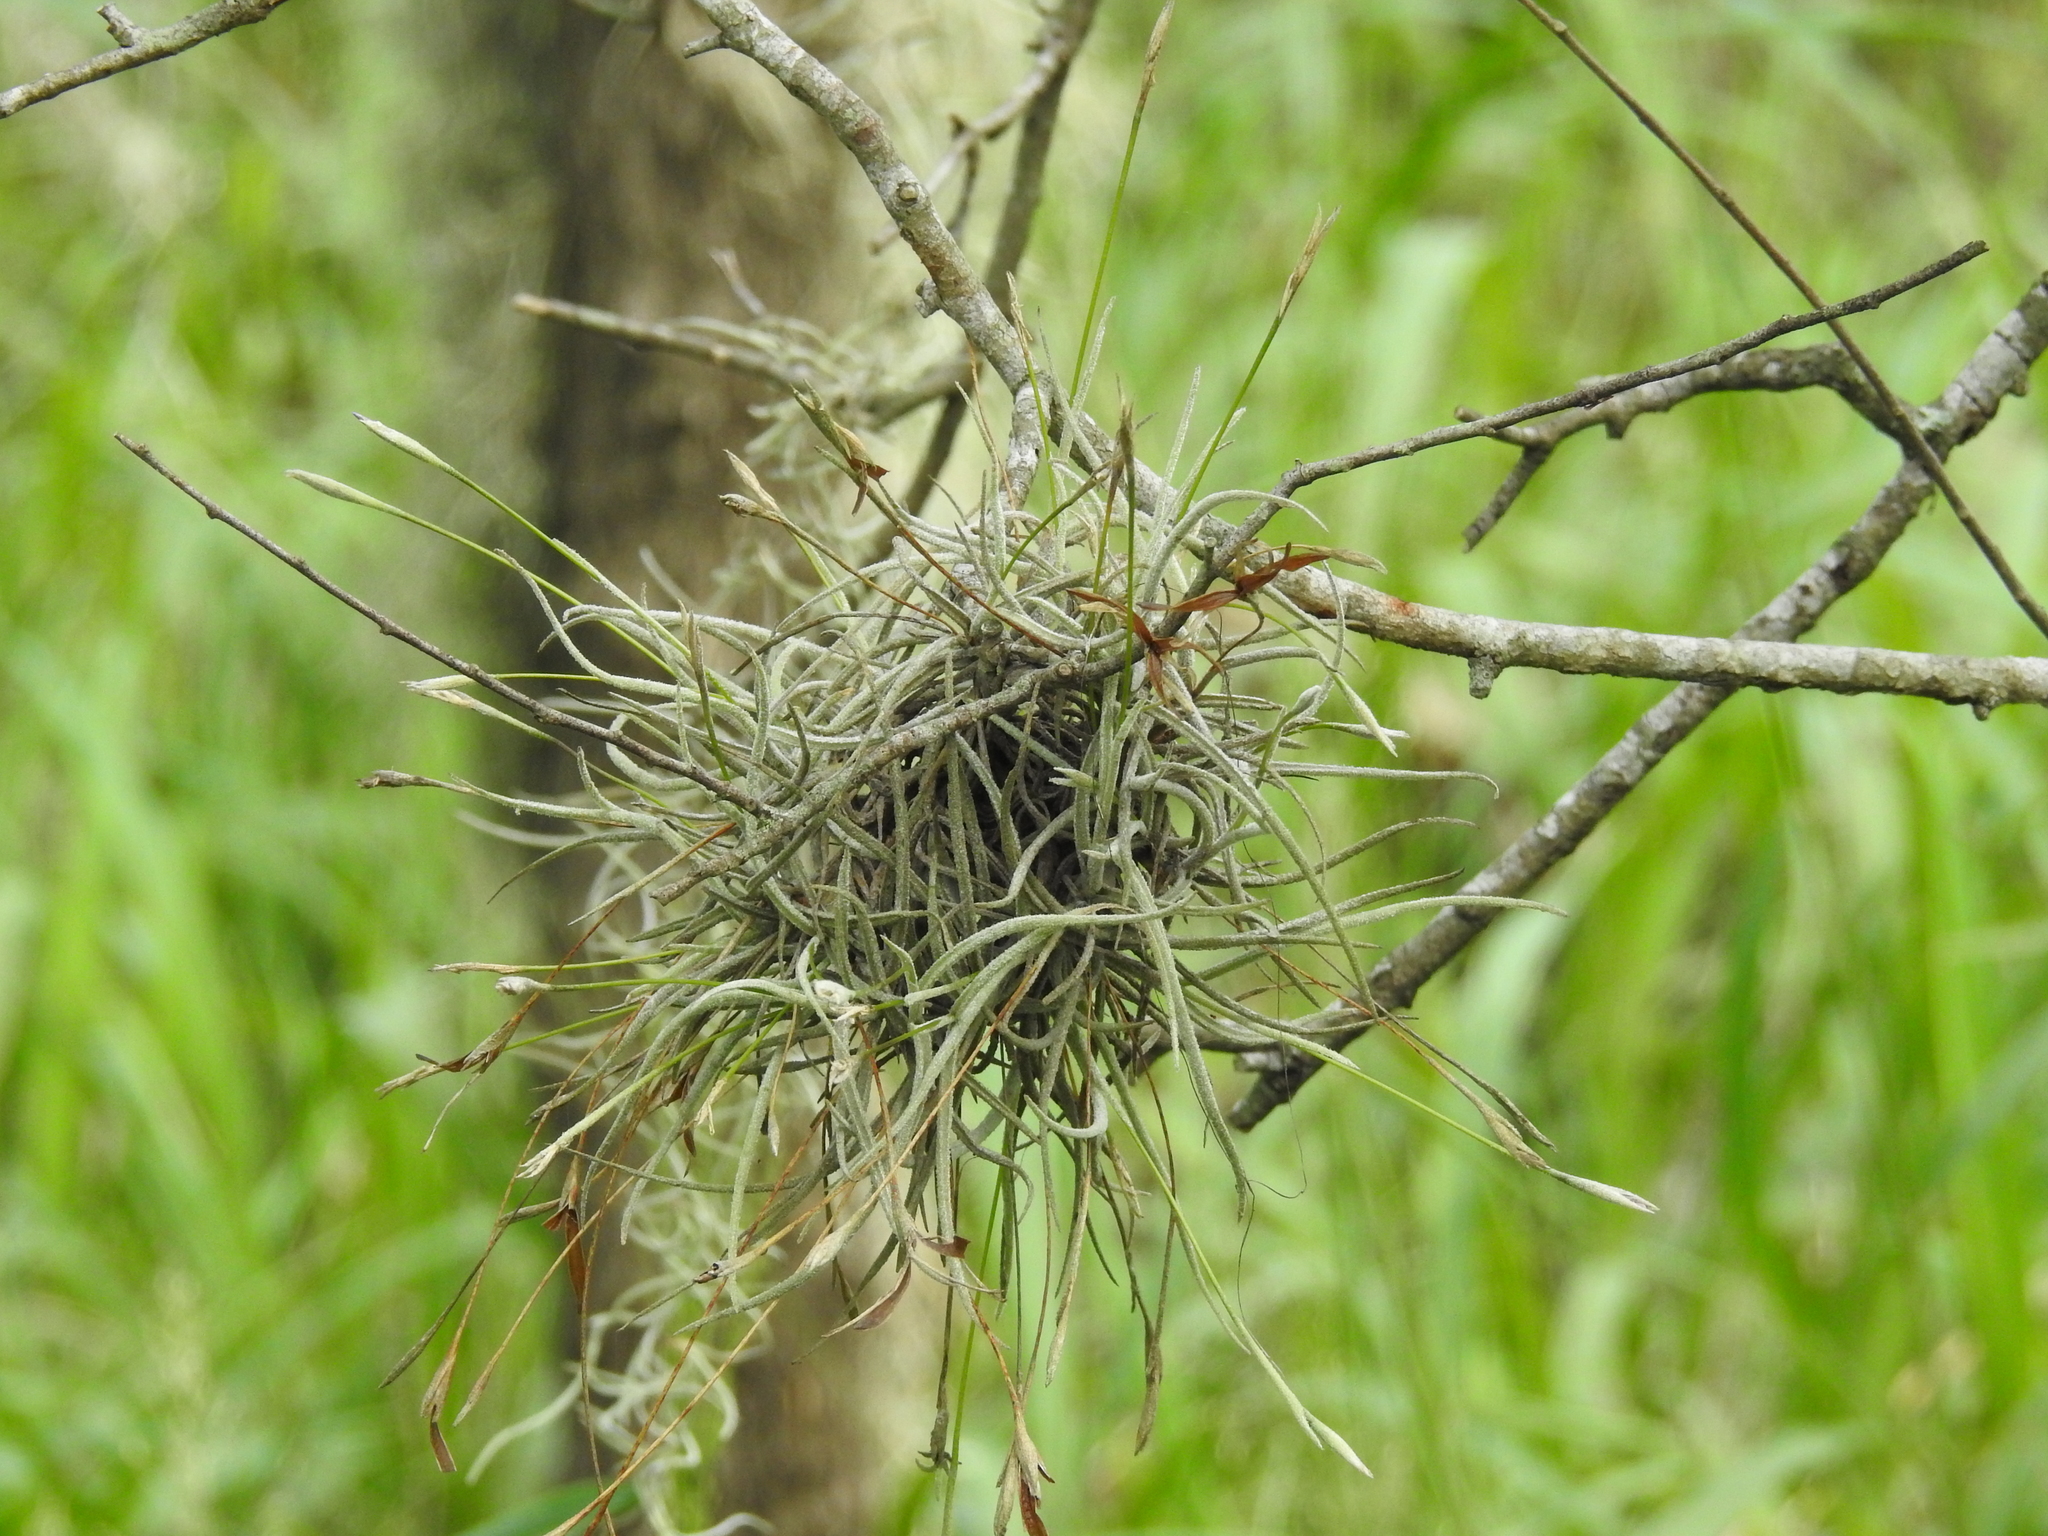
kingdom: Plantae
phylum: Tracheophyta
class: Liliopsida
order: Poales
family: Bromeliaceae
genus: Tillandsia
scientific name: Tillandsia recurvata
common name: Small ballmoss
